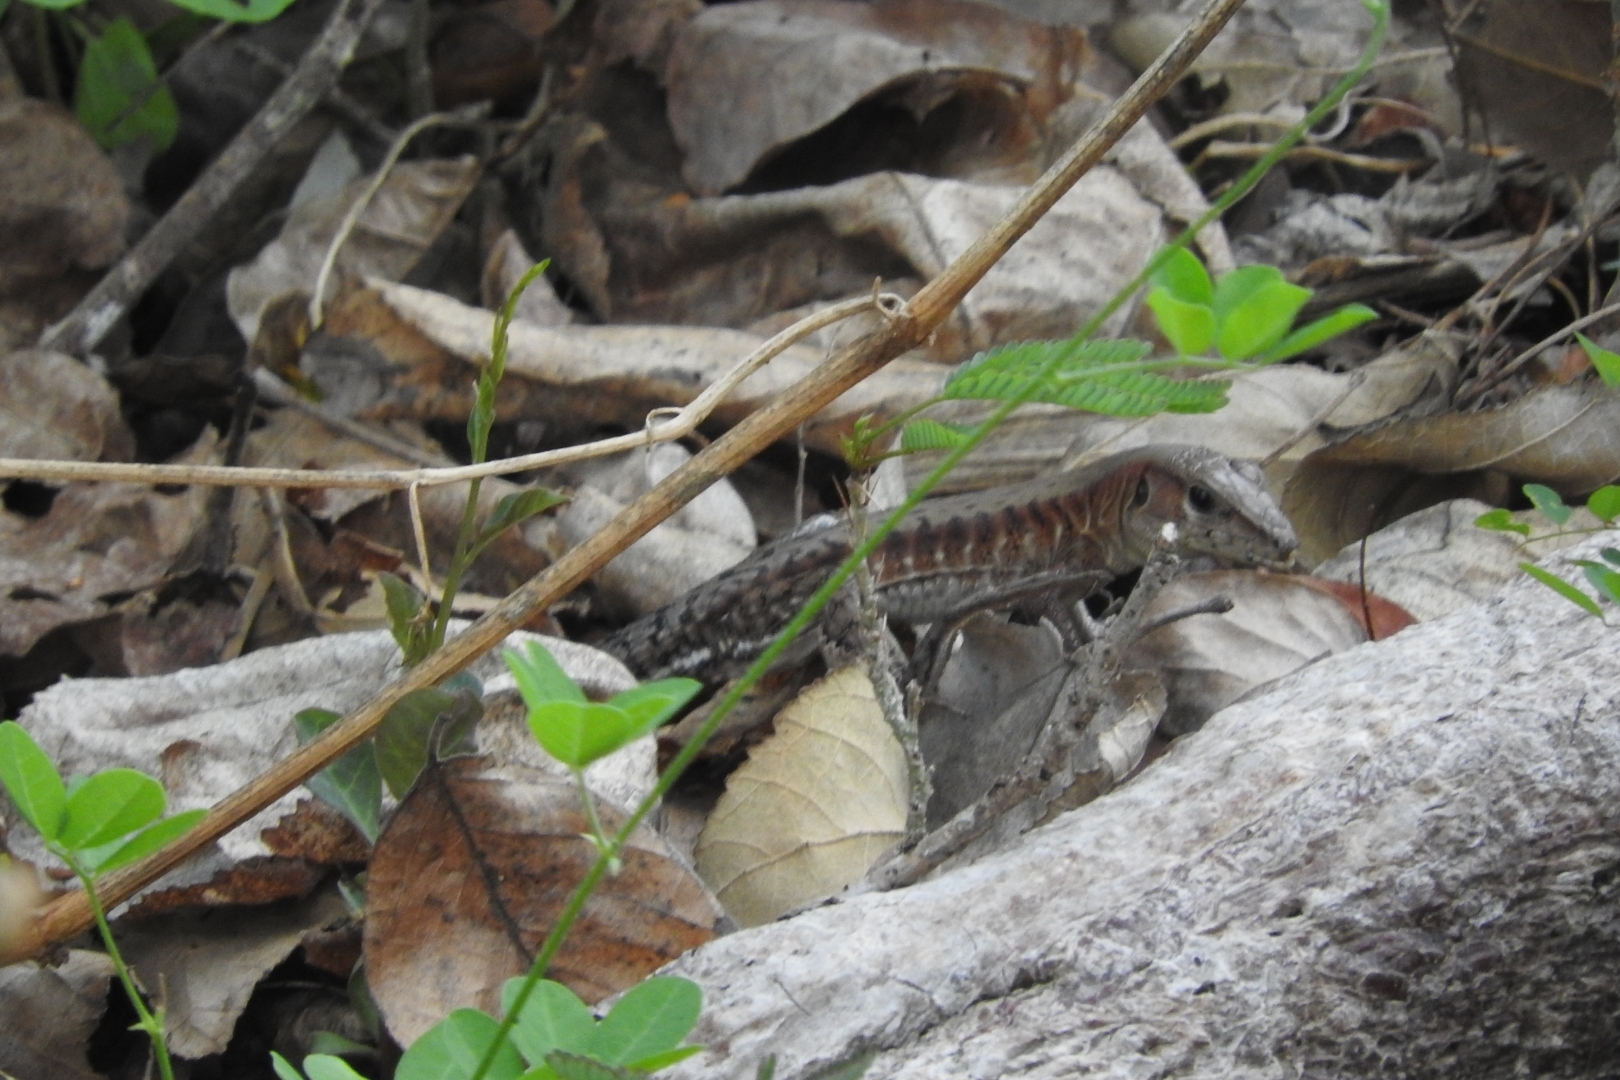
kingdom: Animalia
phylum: Chordata
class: Squamata
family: Teiidae
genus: Holcosus
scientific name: Holcosus undulatus
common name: Rainbow ameiva
